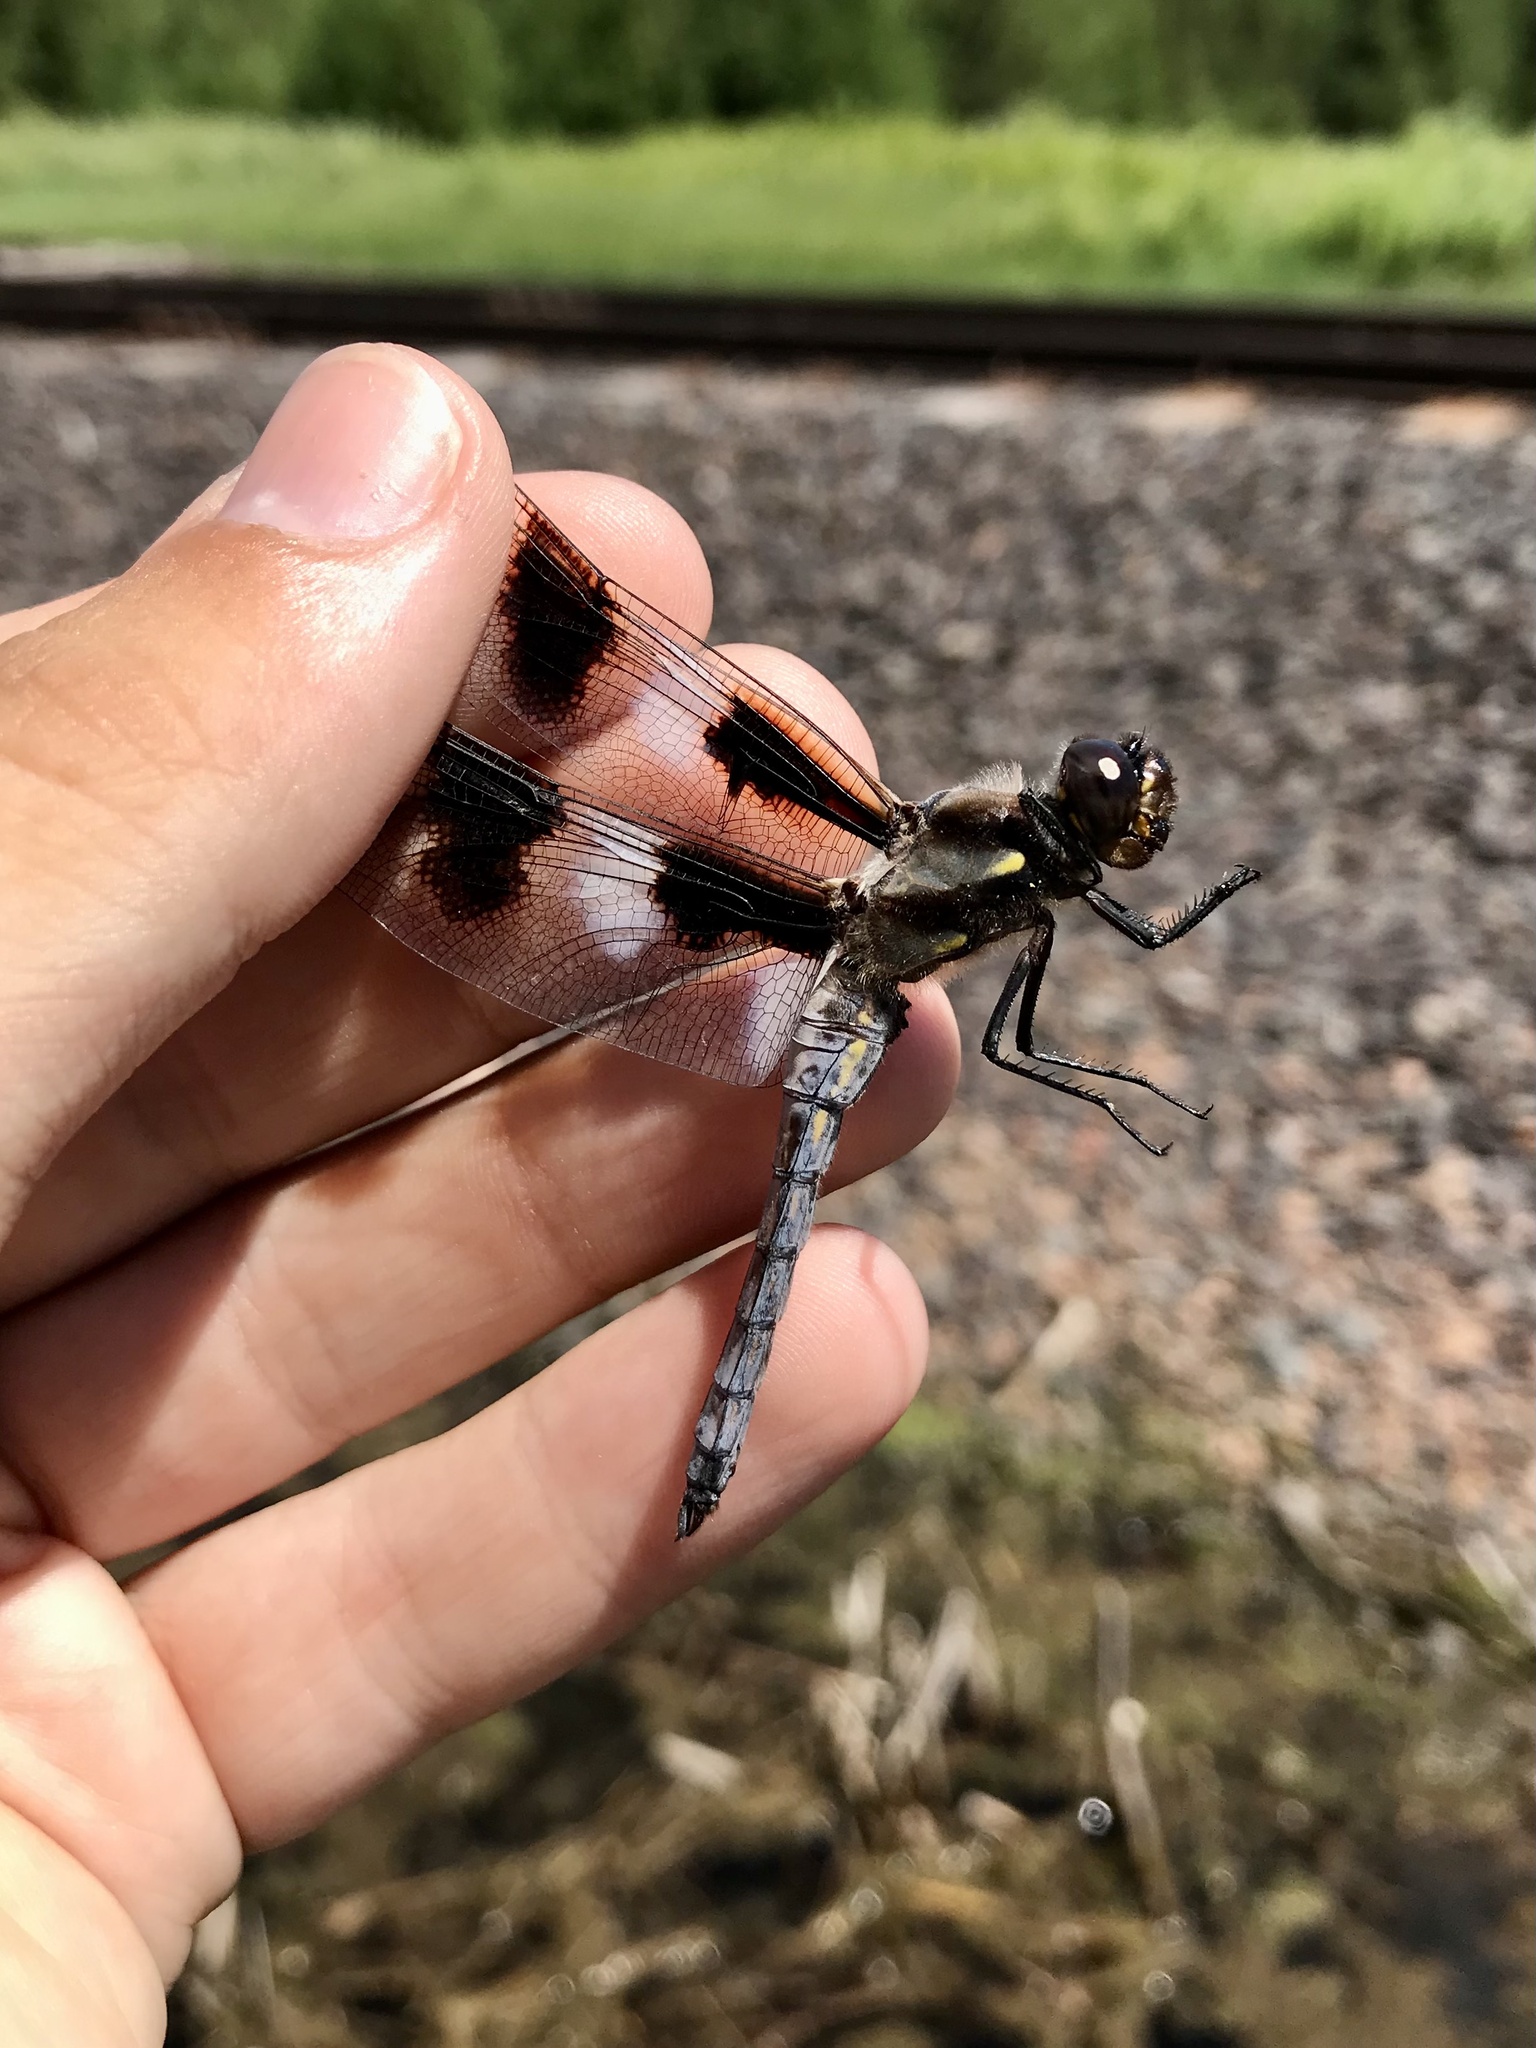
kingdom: Animalia
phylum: Arthropoda
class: Insecta
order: Odonata
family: Libellulidae
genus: Libellula
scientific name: Libellula pulchella
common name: Twelve-spotted skimmer
